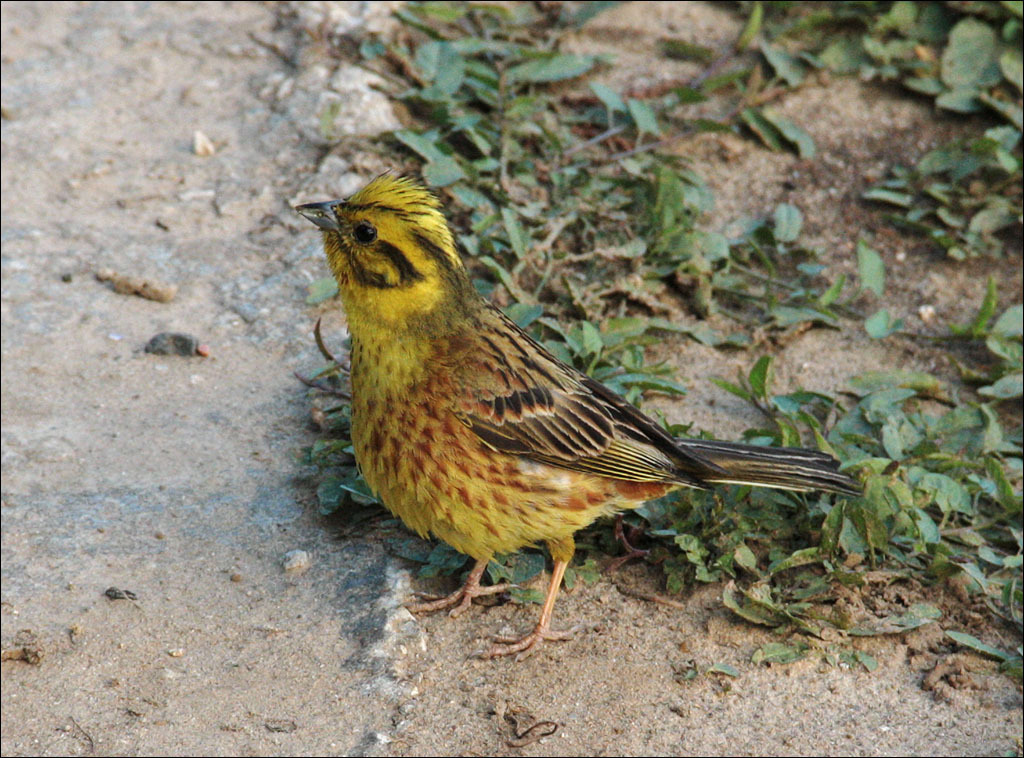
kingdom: Animalia
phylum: Chordata
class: Aves
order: Passeriformes
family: Emberizidae
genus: Emberiza
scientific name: Emberiza citrinella
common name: Yellowhammer
